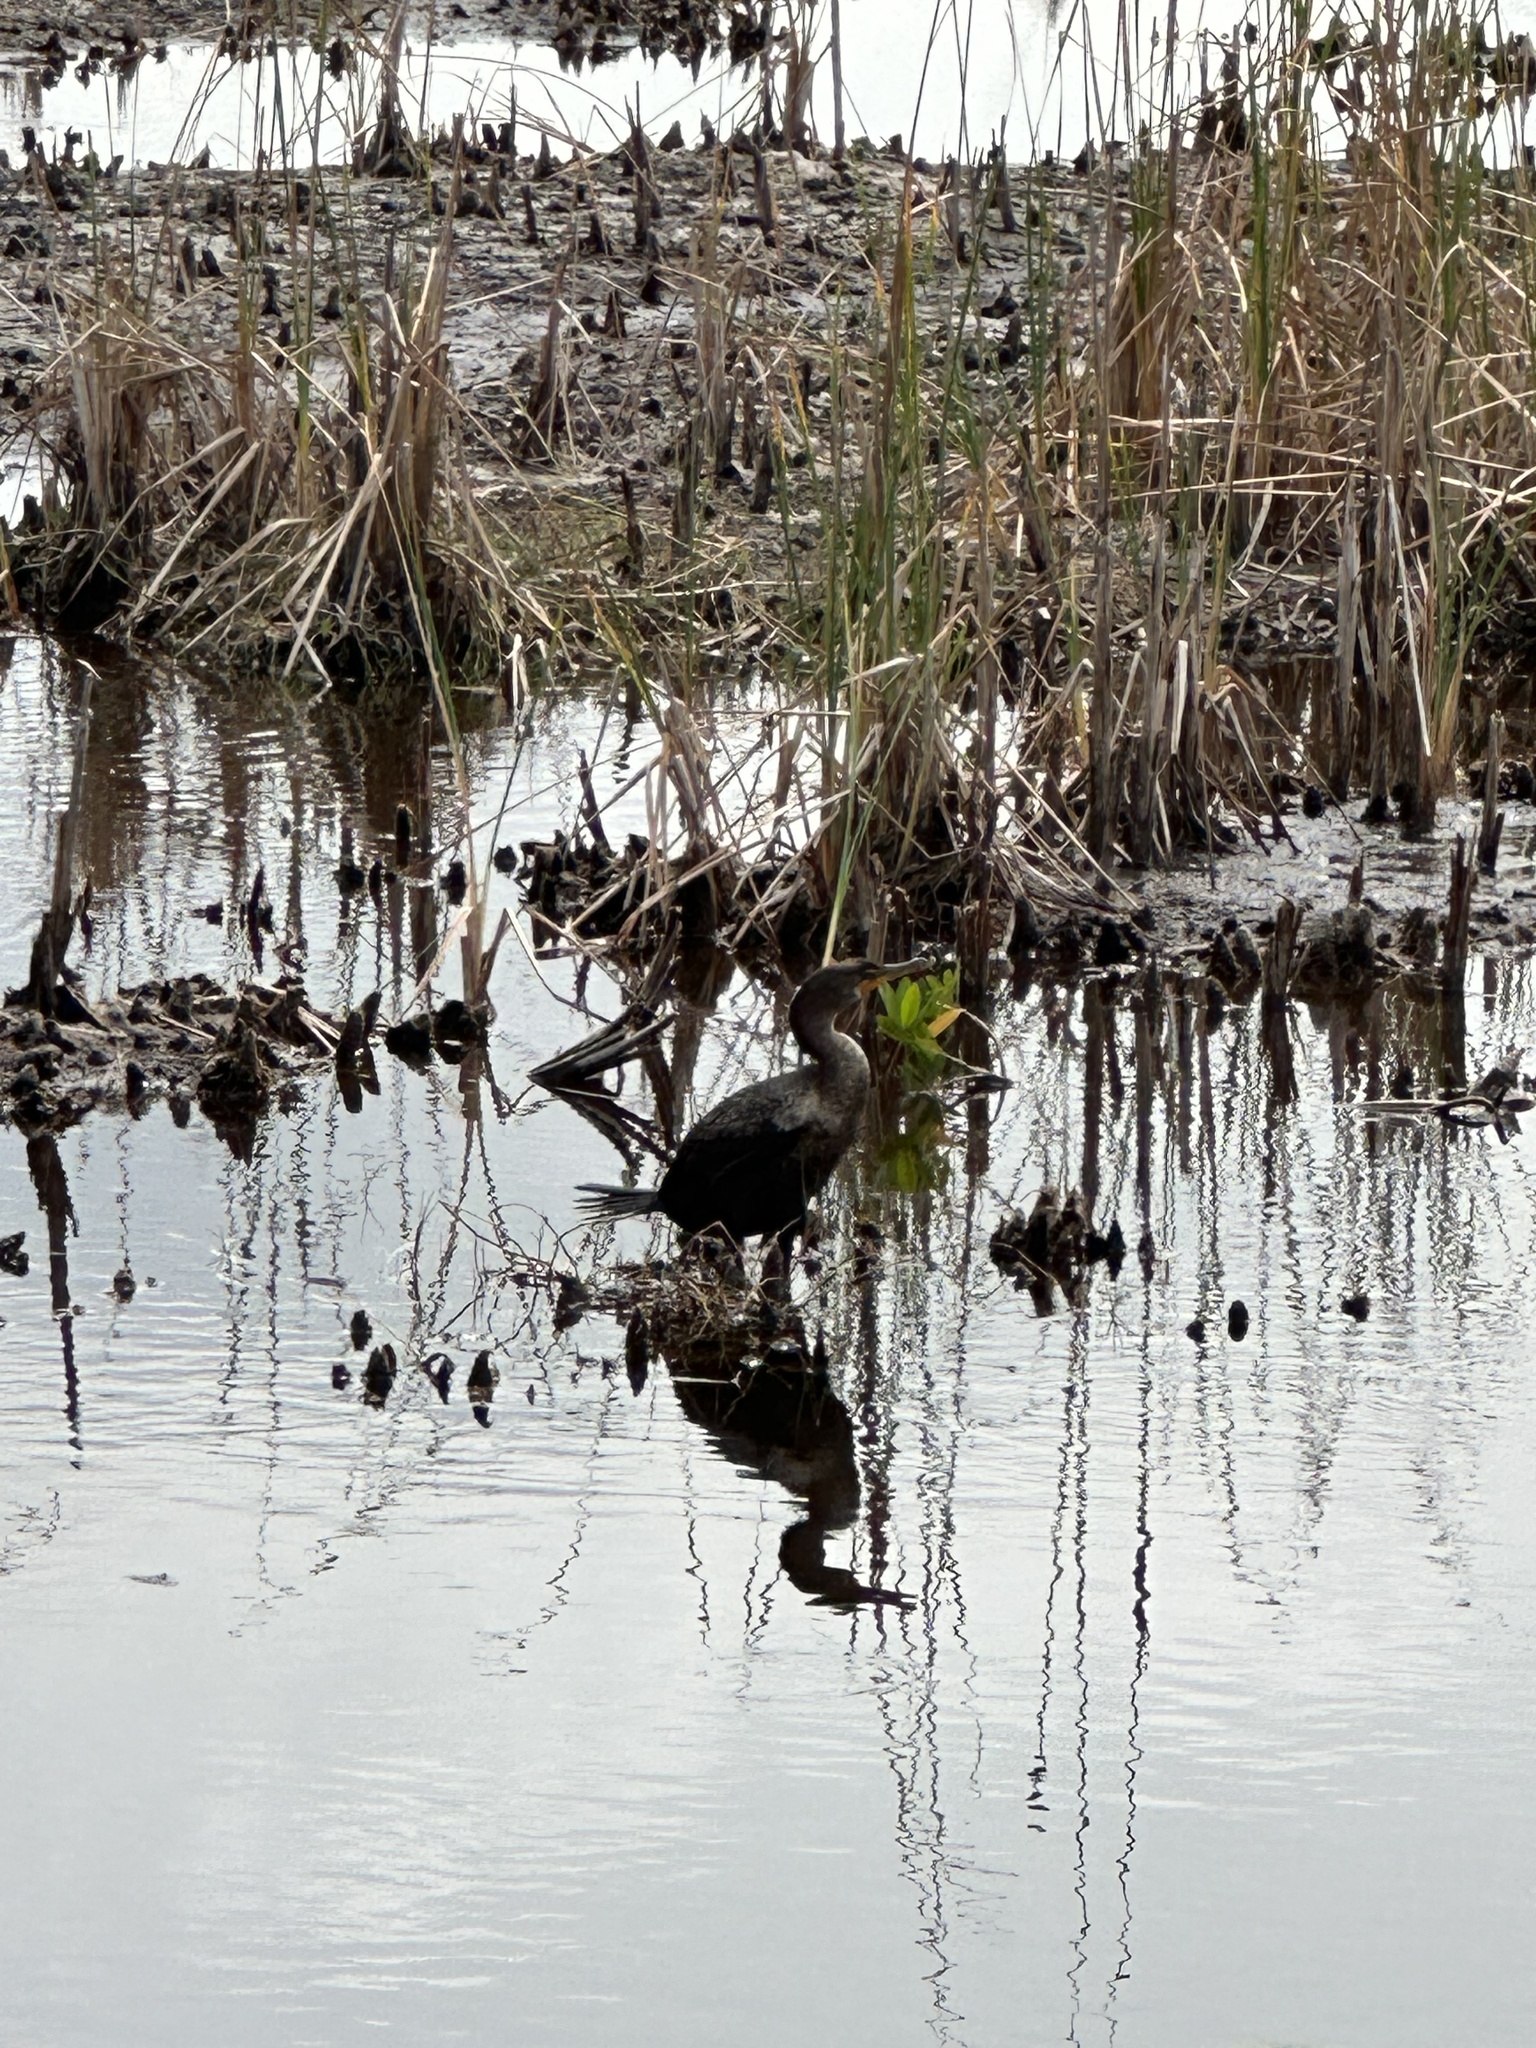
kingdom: Animalia
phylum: Chordata
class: Aves
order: Suliformes
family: Phalacrocoracidae
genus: Phalacrocorax
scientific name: Phalacrocorax auritus
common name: Double-crested cormorant
